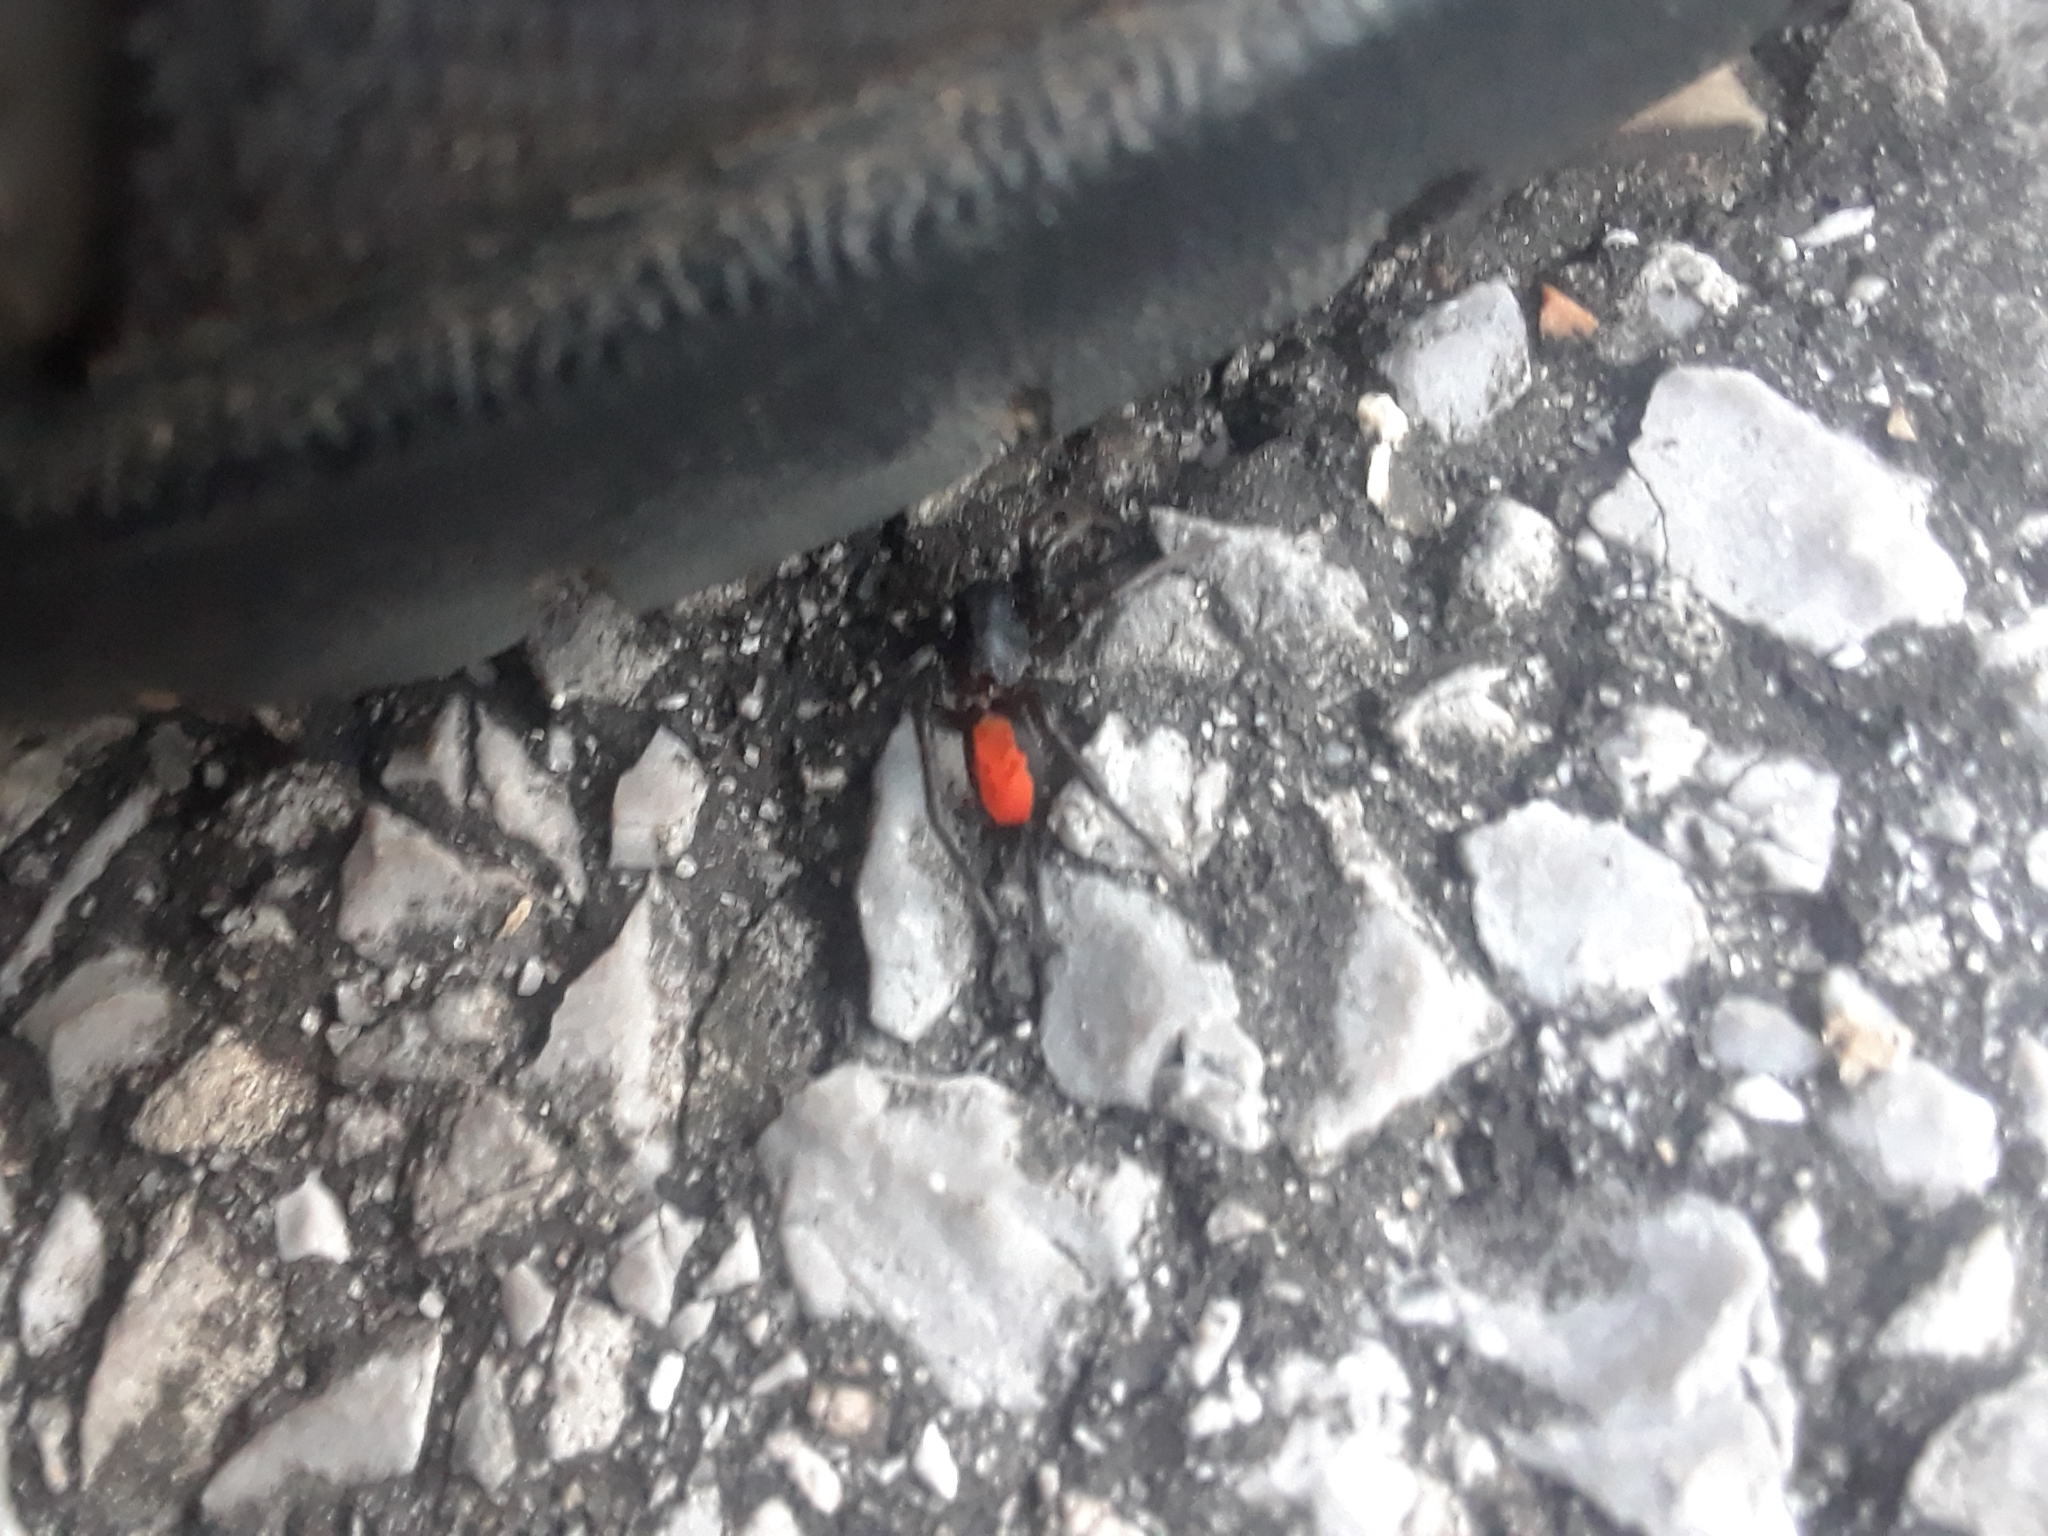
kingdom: Animalia
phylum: Arthropoda
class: Arachnida
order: Araneae
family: Corinnidae
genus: Castianeira
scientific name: Castianeira descripta
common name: Red-spotted ant-mimic sac spider
